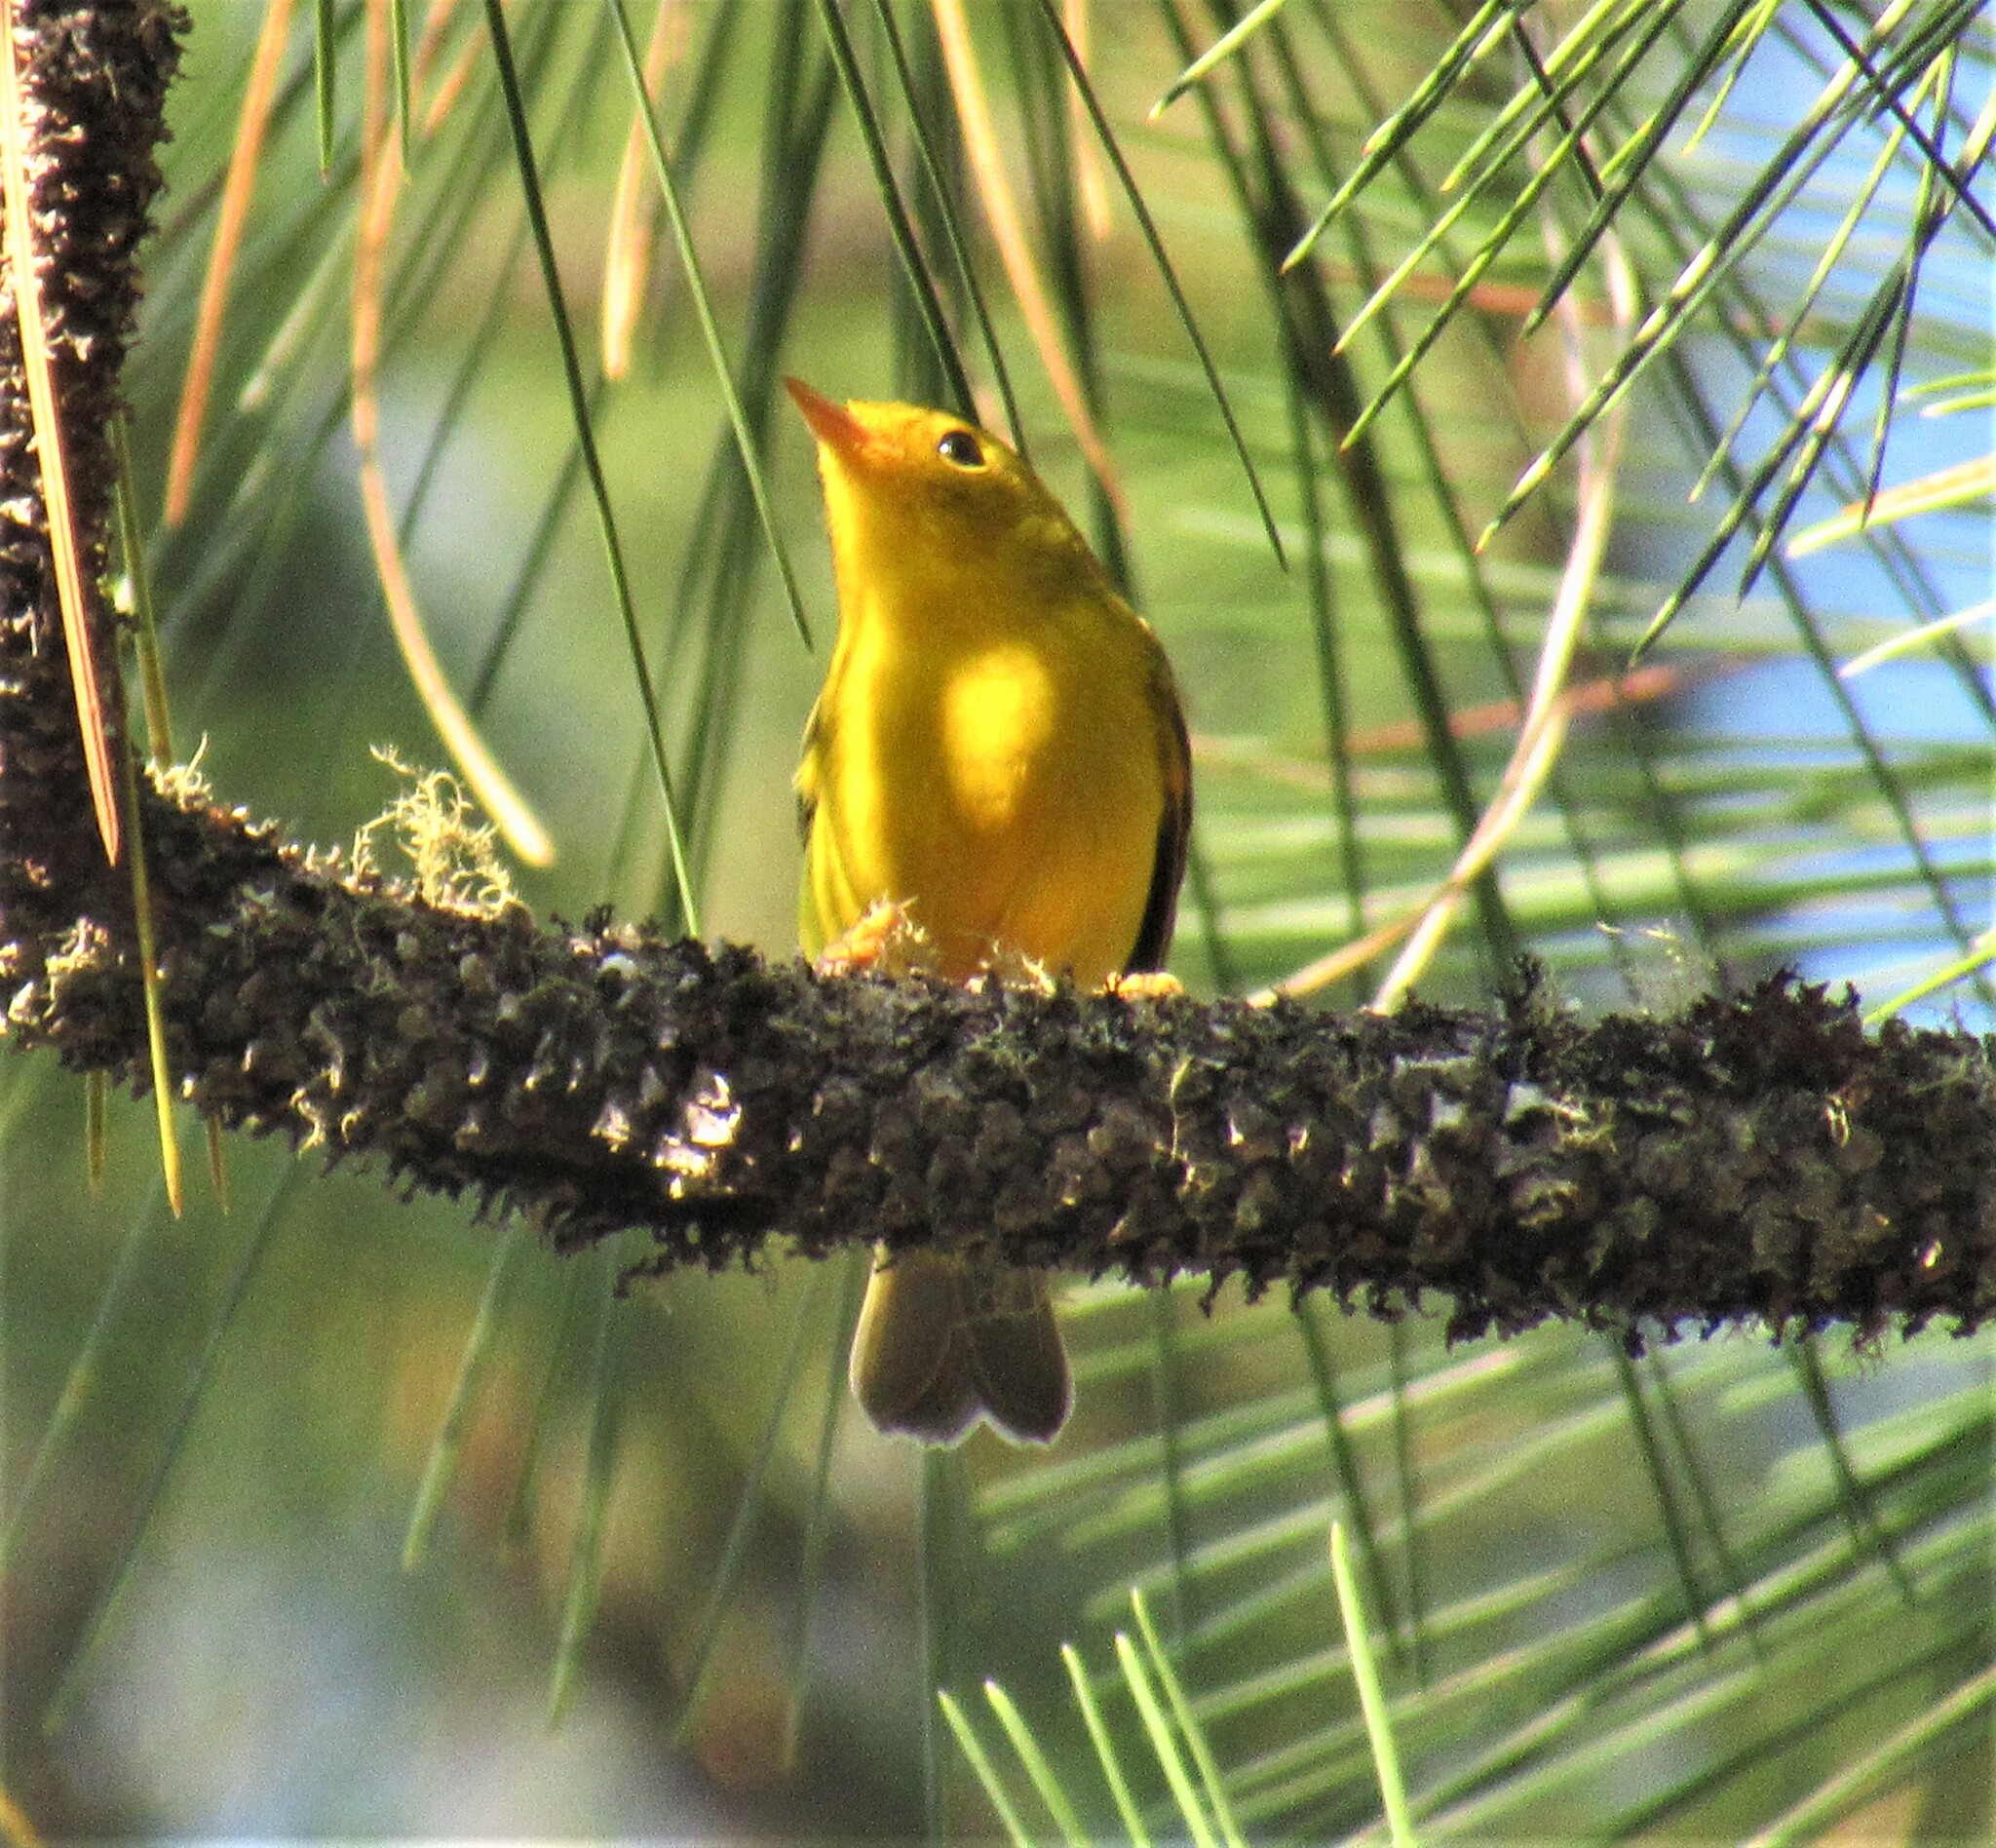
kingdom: Animalia
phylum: Chordata
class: Aves
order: Passeriformes
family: Parulidae
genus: Cardellina
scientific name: Cardellina pusilla
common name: Wilson's warbler
